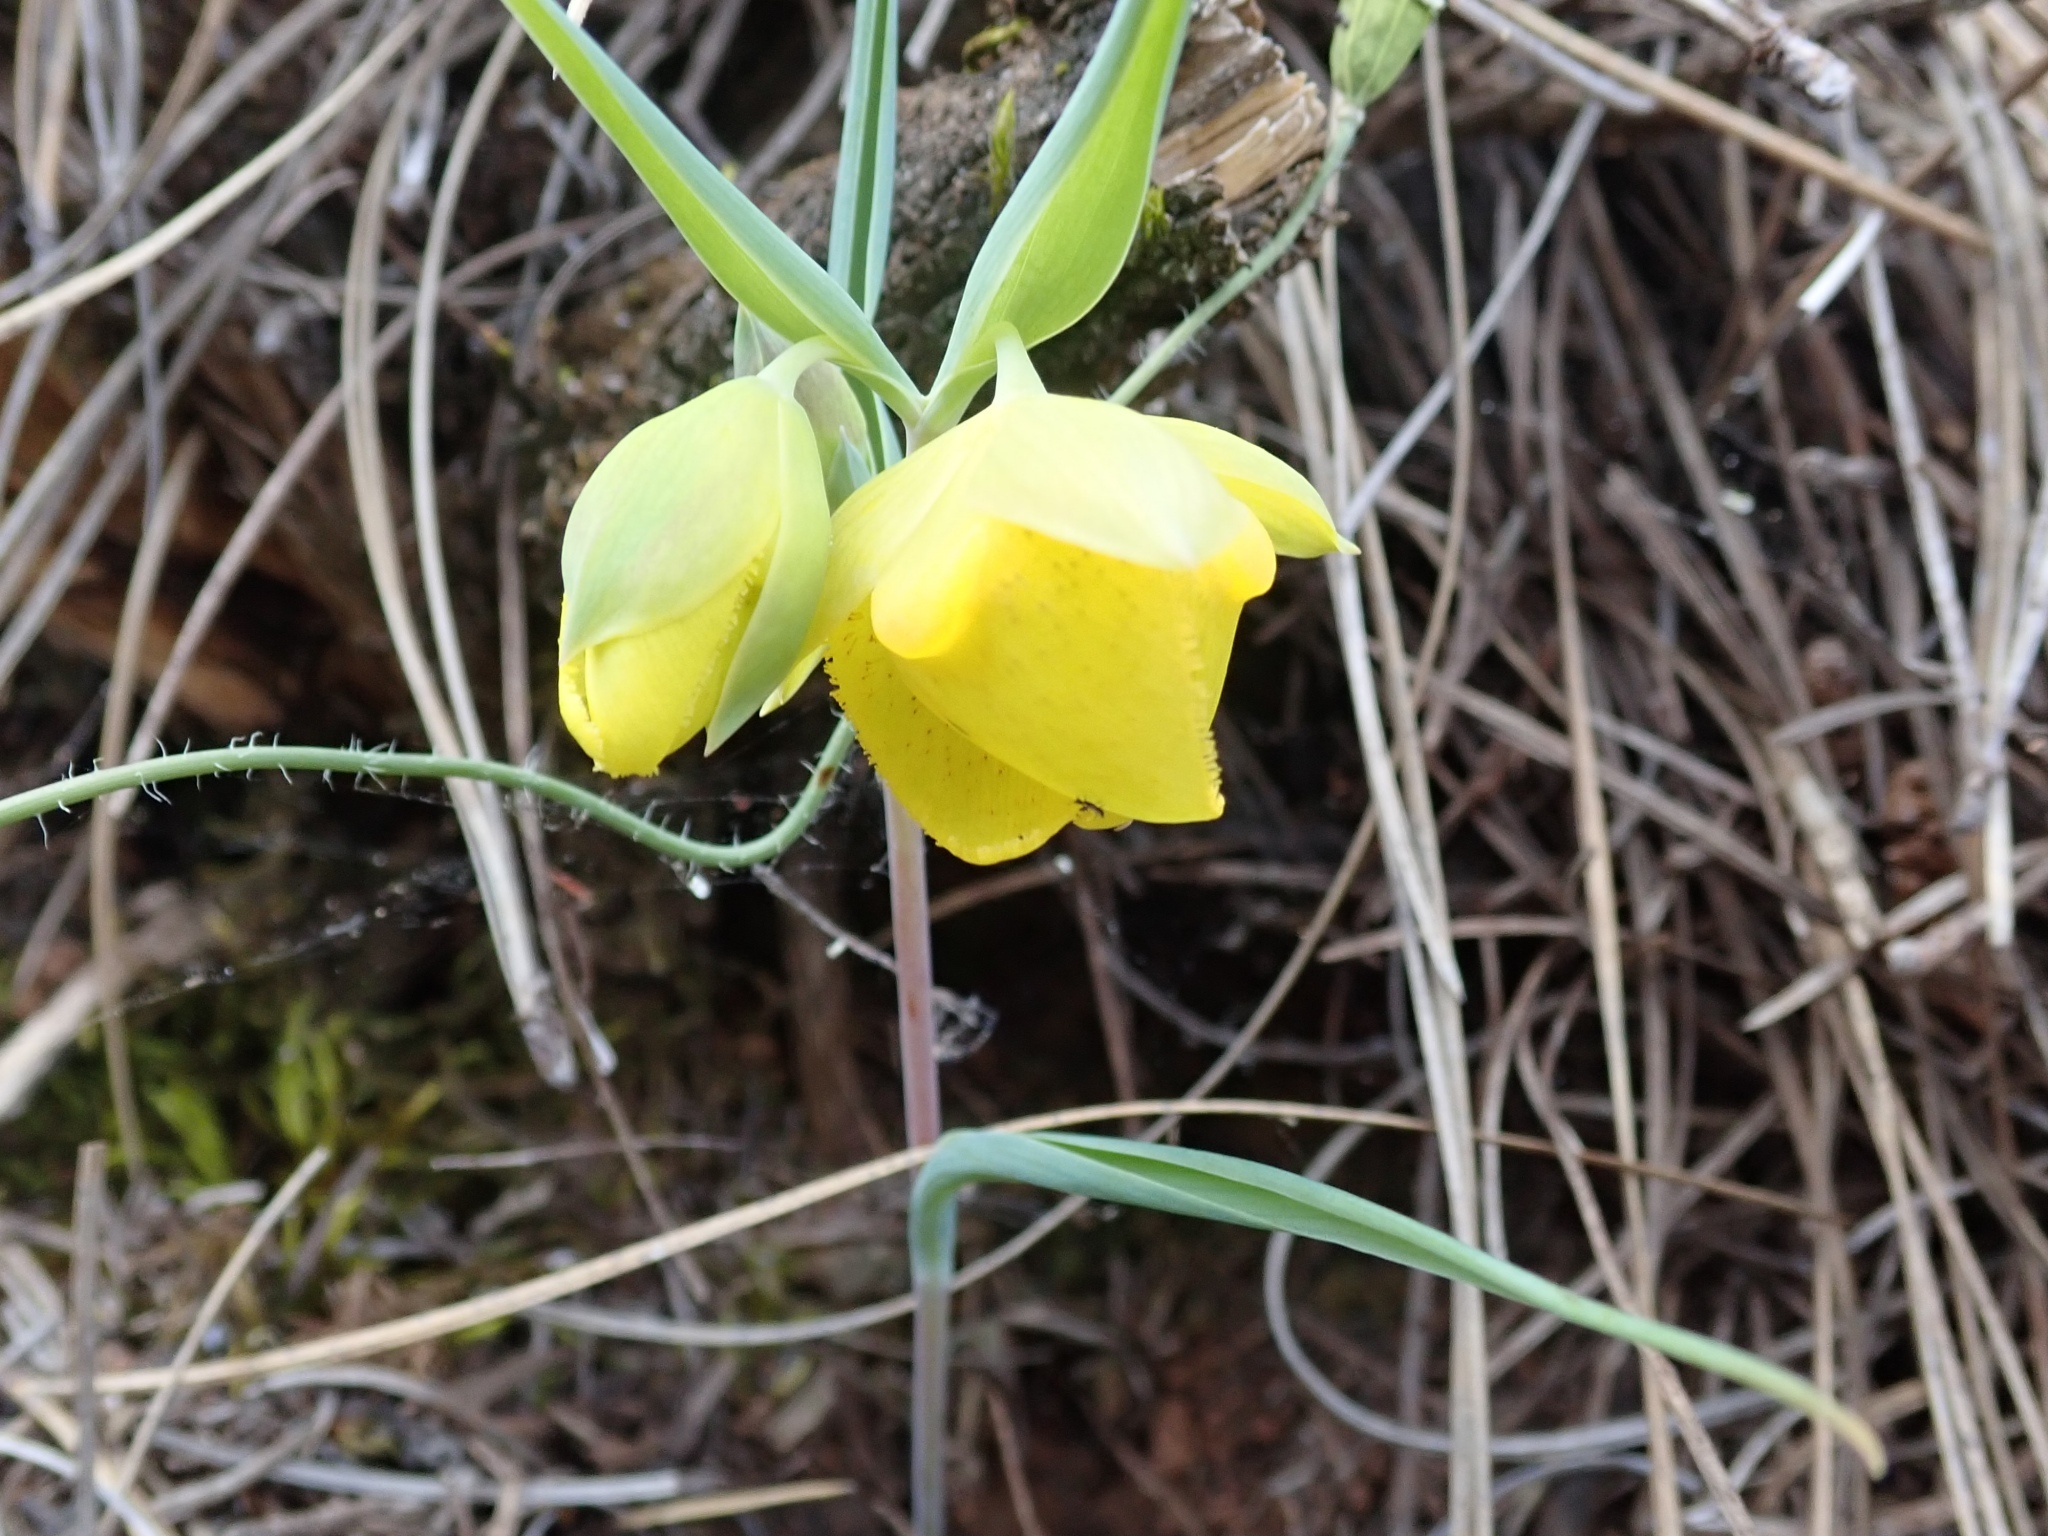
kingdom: Plantae
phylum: Tracheophyta
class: Liliopsida
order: Liliales
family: Liliaceae
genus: Calochortus
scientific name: Calochortus pulchellus
